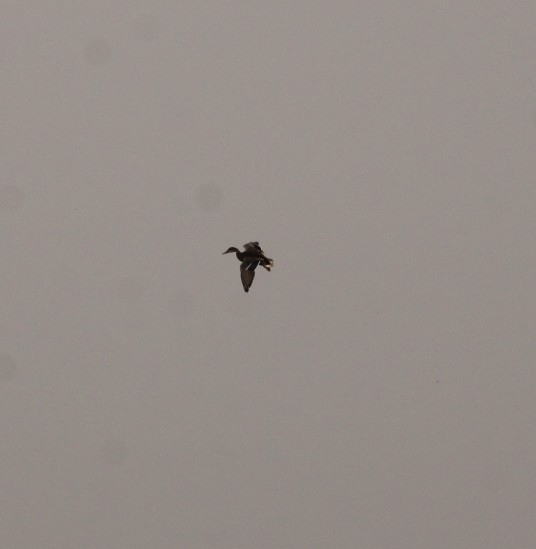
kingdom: Animalia
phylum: Chordata
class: Aves
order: Anseriformes
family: Anatidae
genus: Anas
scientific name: Anas platyrhynchos
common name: Mallard
